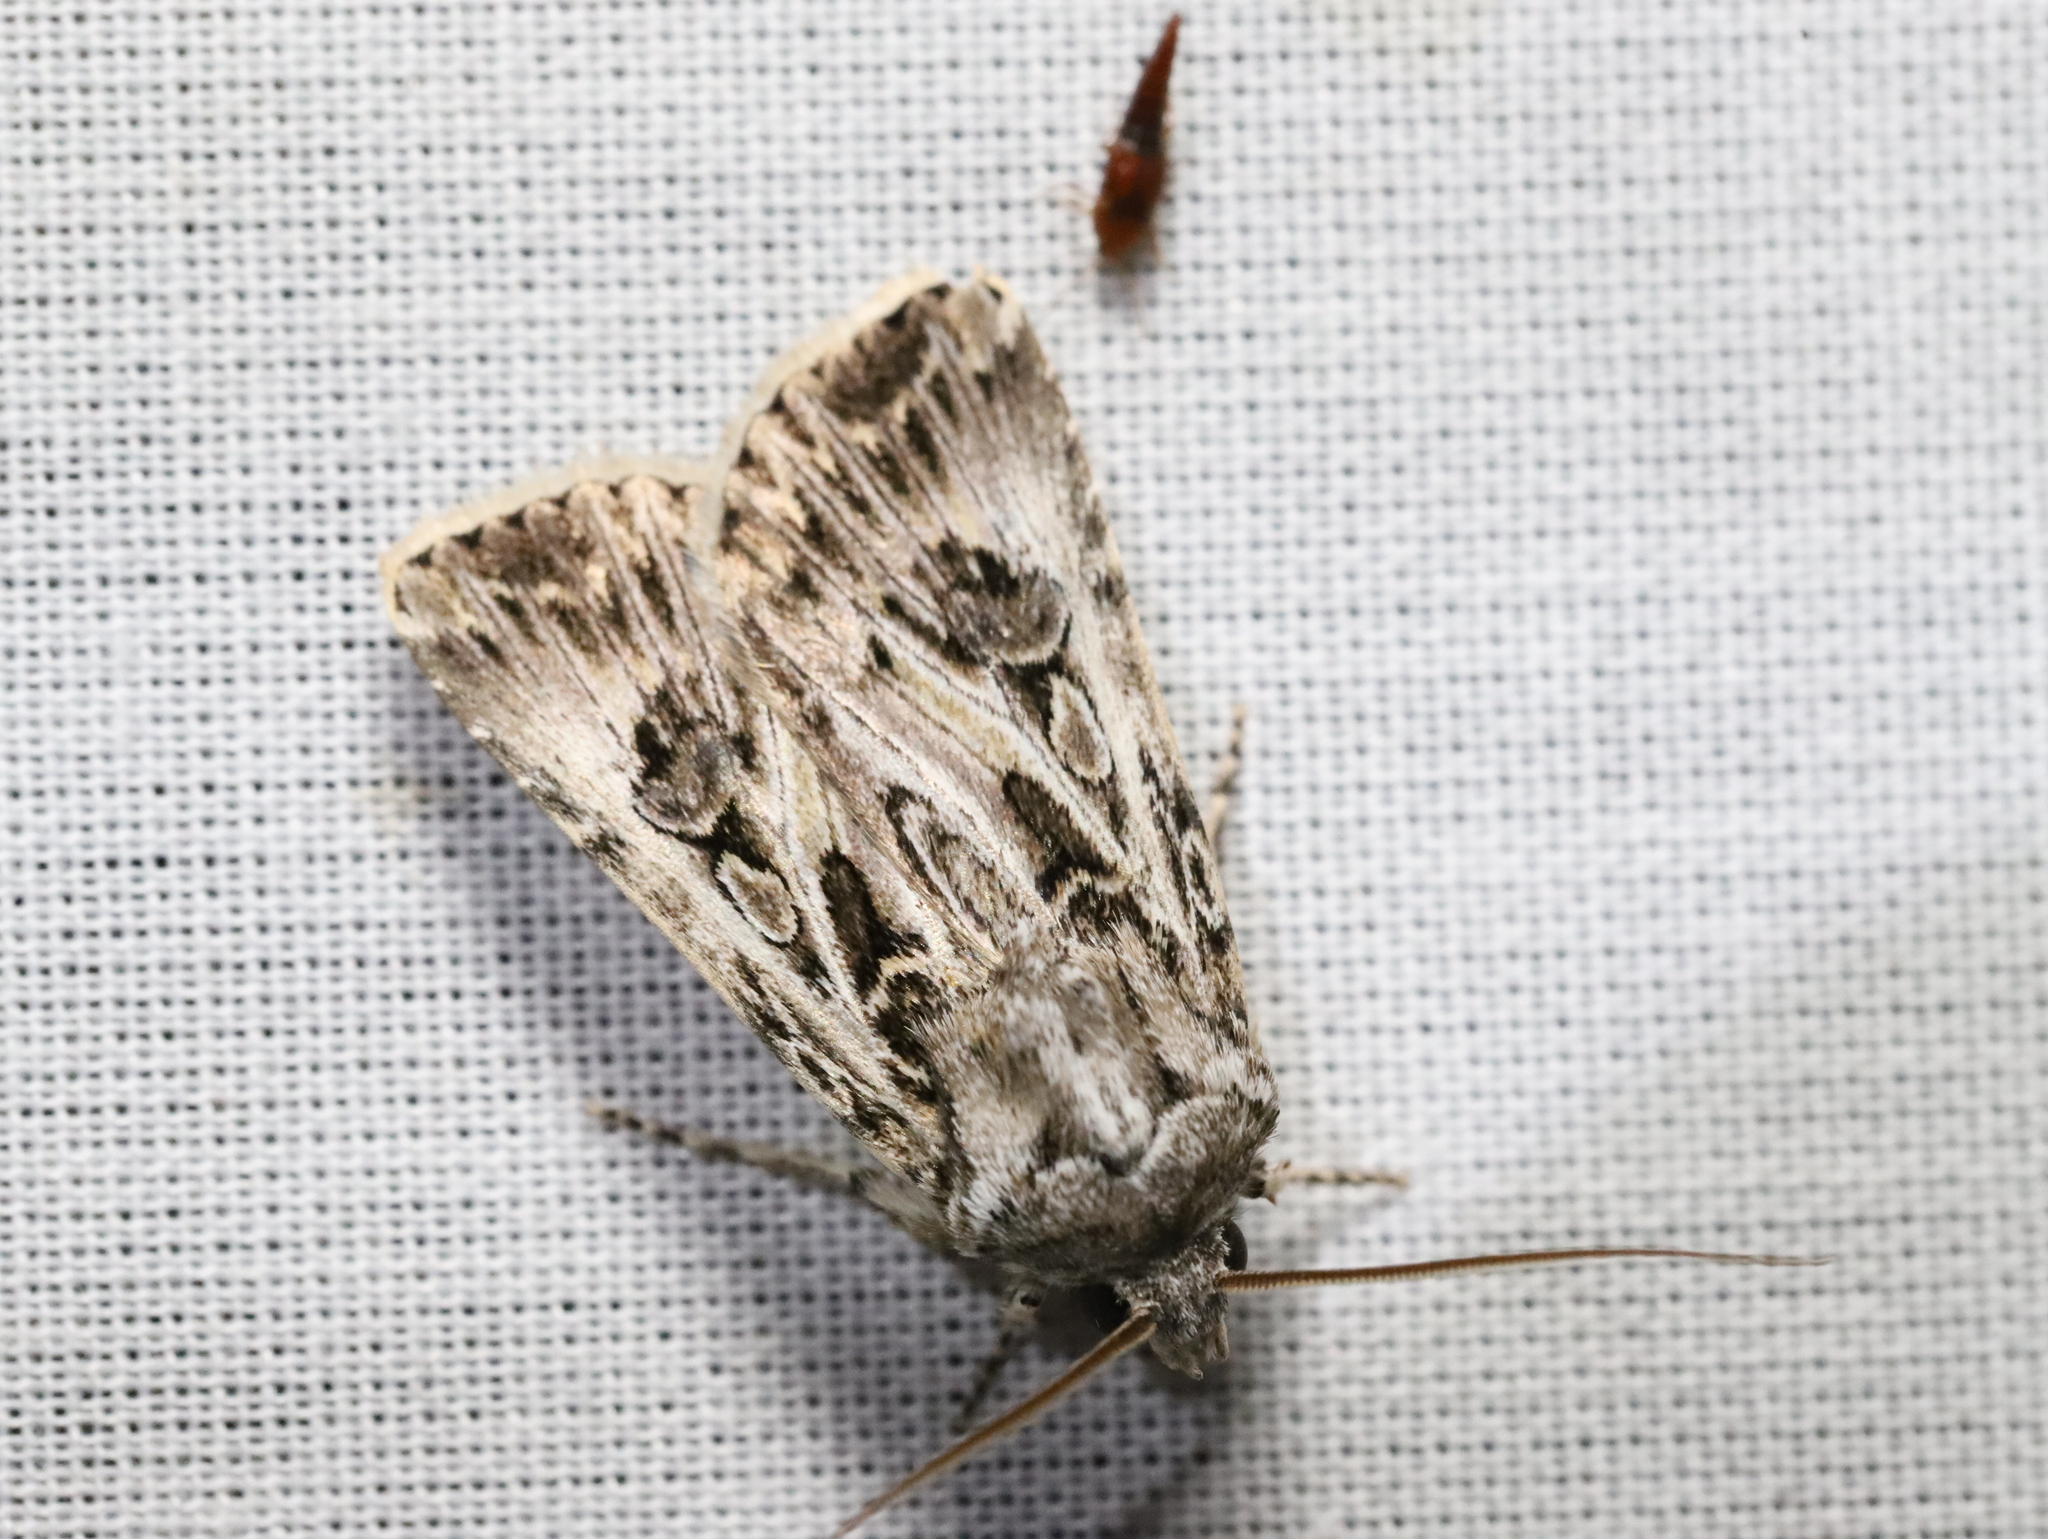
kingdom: Animalia
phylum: Arthropoda
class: Insecta
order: Lepidoptera
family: Noctuidae
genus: Agrotis
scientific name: Agrotis radians
